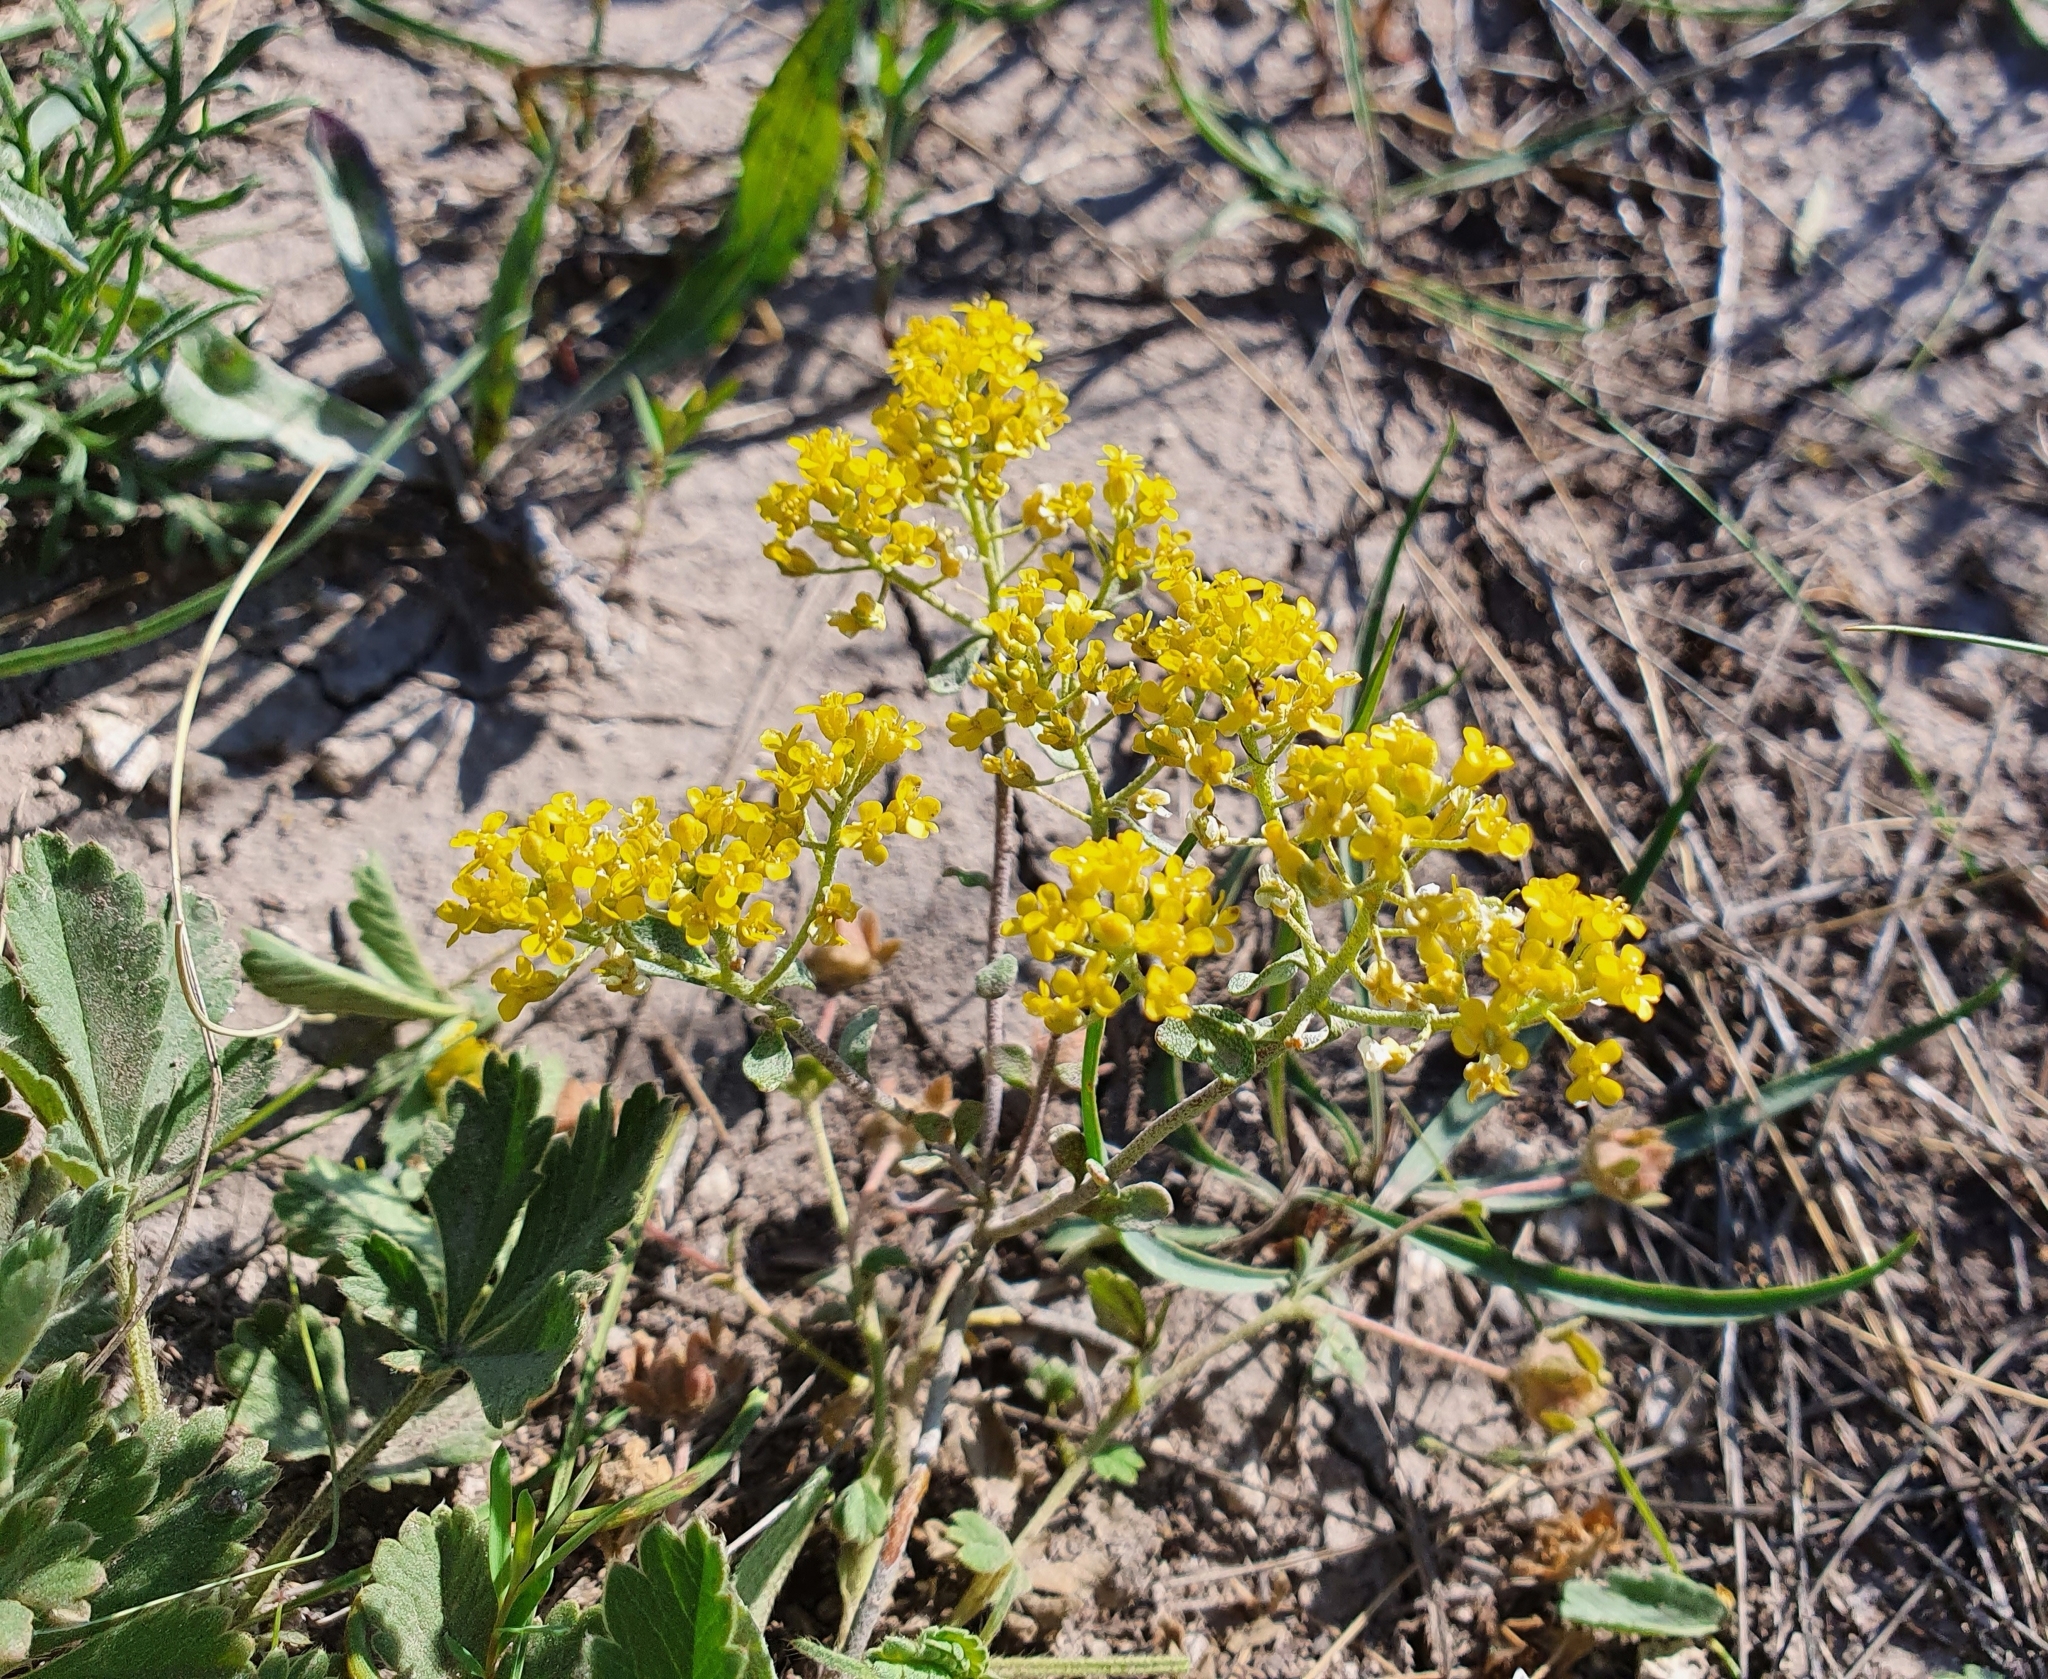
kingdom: Plantae
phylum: Tracheophyta
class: Magnoliopsida
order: Brassicales
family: Brassicaceae
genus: Odontarrhena
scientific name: Odontarrhena tortuosa
